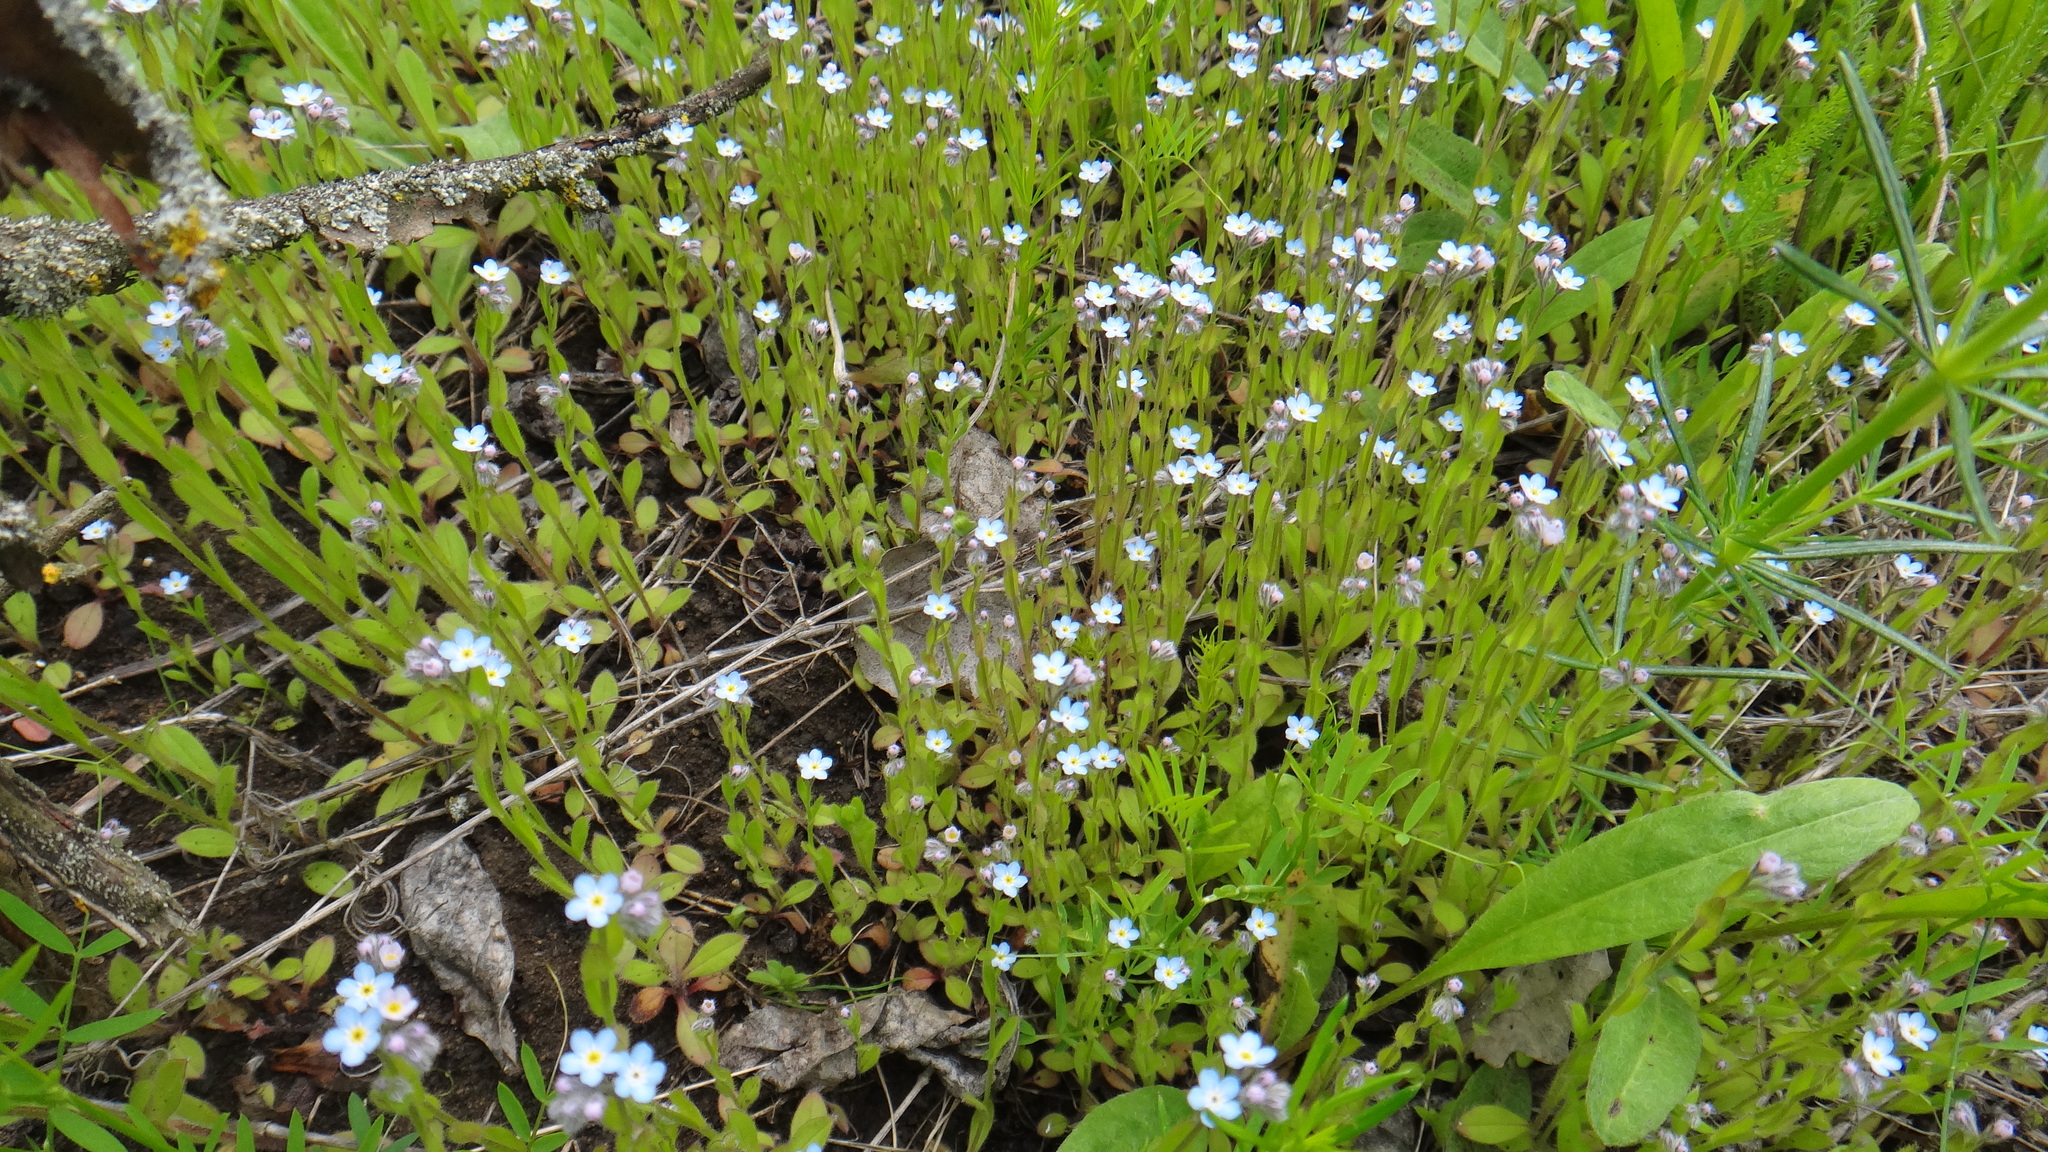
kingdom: Plantae
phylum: Tracheophyta
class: Magnoliopsida
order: Boraginales
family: Boraginaceae
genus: Myosotis
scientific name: Myosotis arvensis
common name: Field forget-me-not
